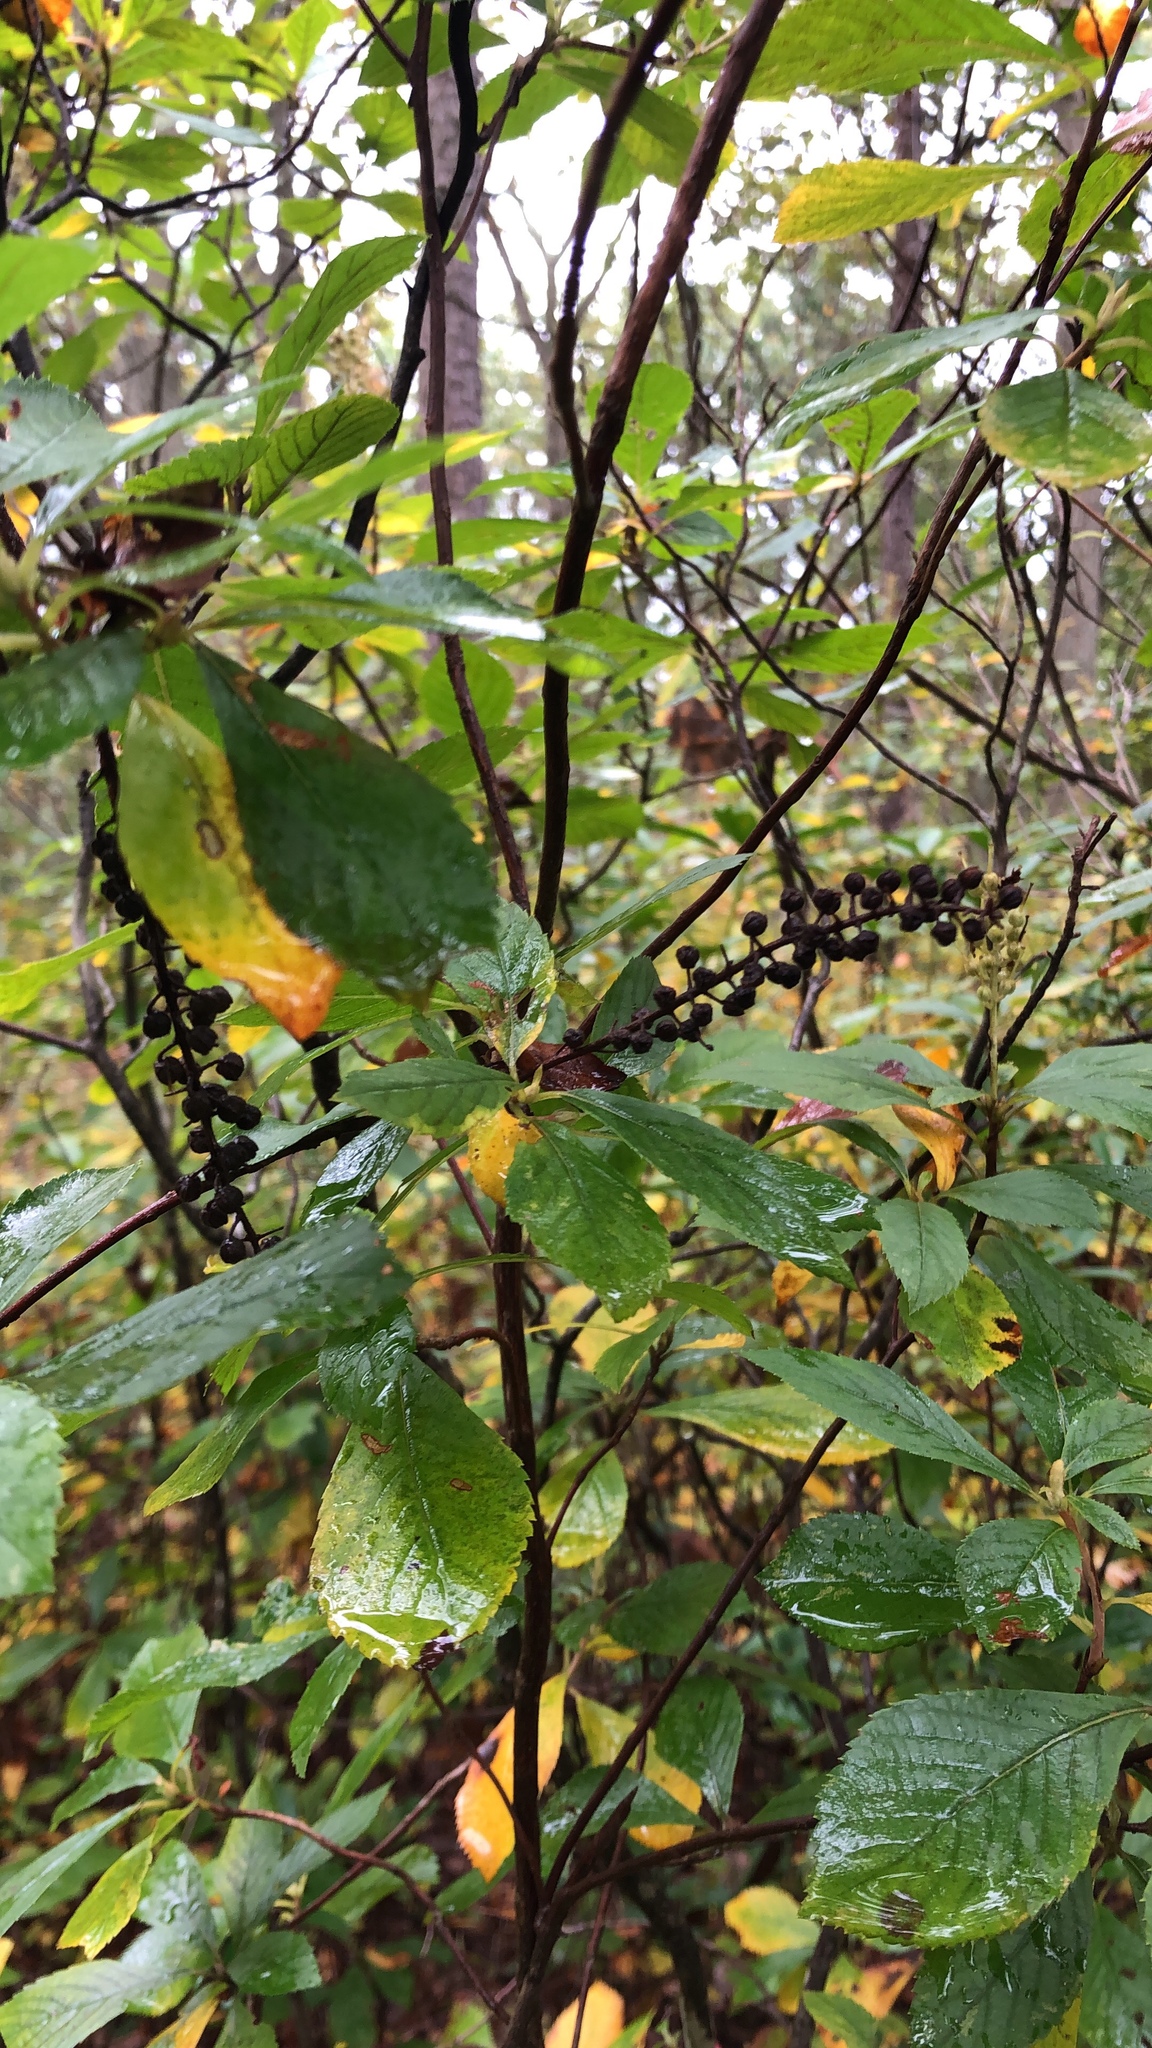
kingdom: Plantae
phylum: Tracheophyta
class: Magnoliopsida
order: Ericales
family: Clethraceae
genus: Clethra
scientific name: Clethra alnifolia
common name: Sweet pepperbush
